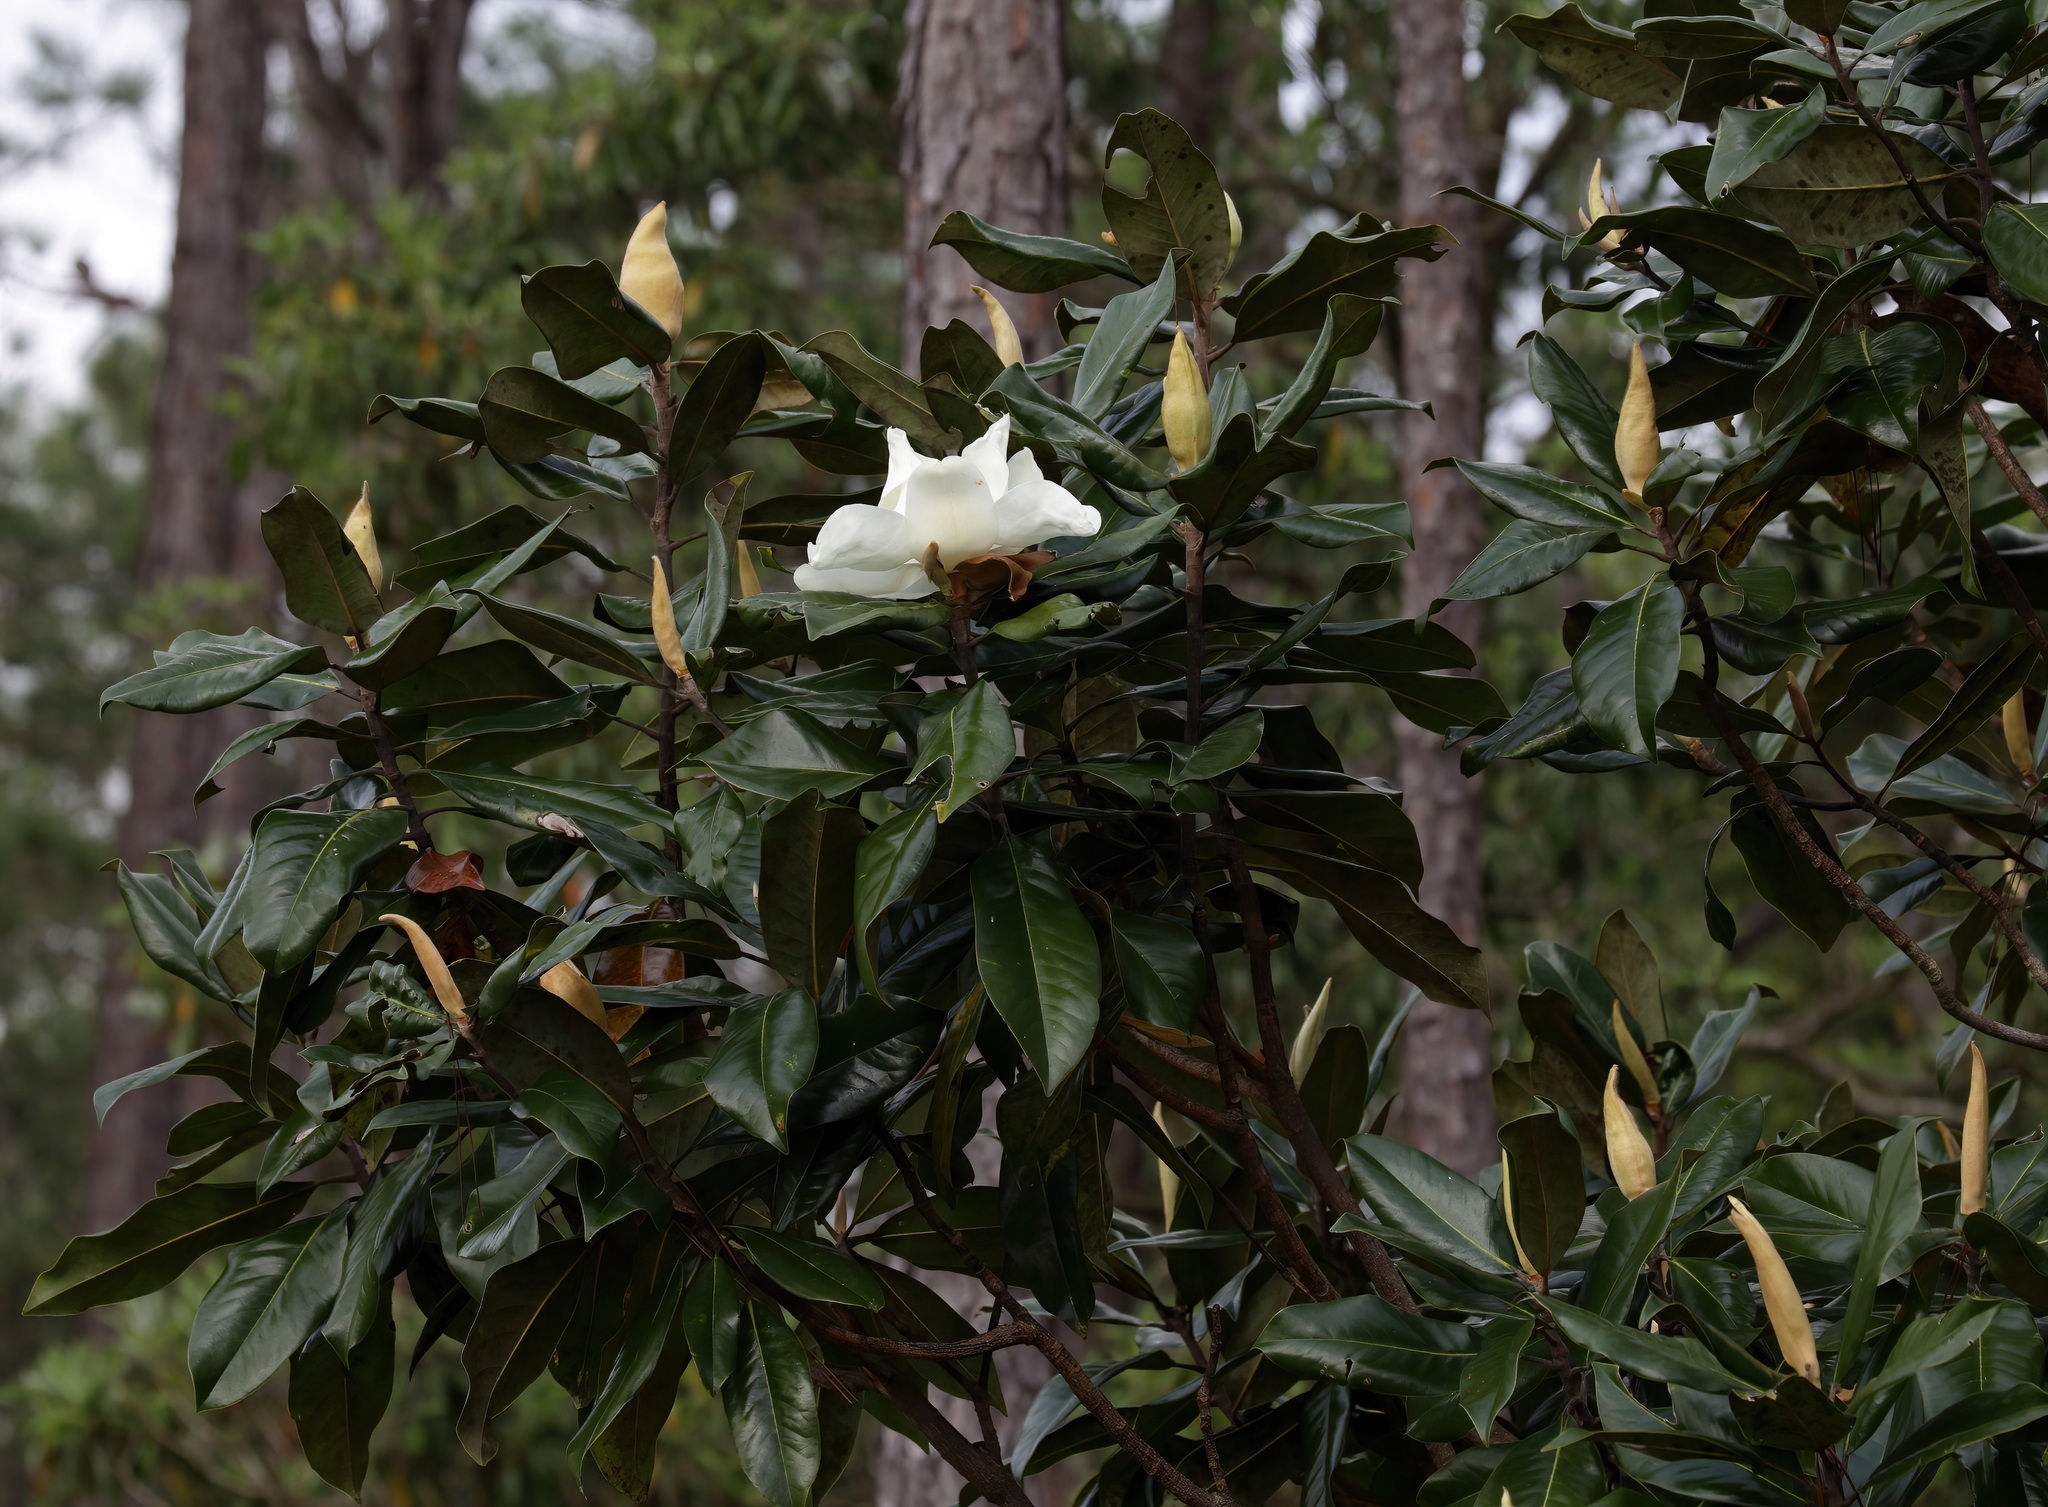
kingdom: Plantae
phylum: Tracheophyta
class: Magnoliopsida
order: Magnoliales
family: Magnoliaceae
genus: Magnolia
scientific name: Magnolia grandiflora
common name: Southern magnolia
